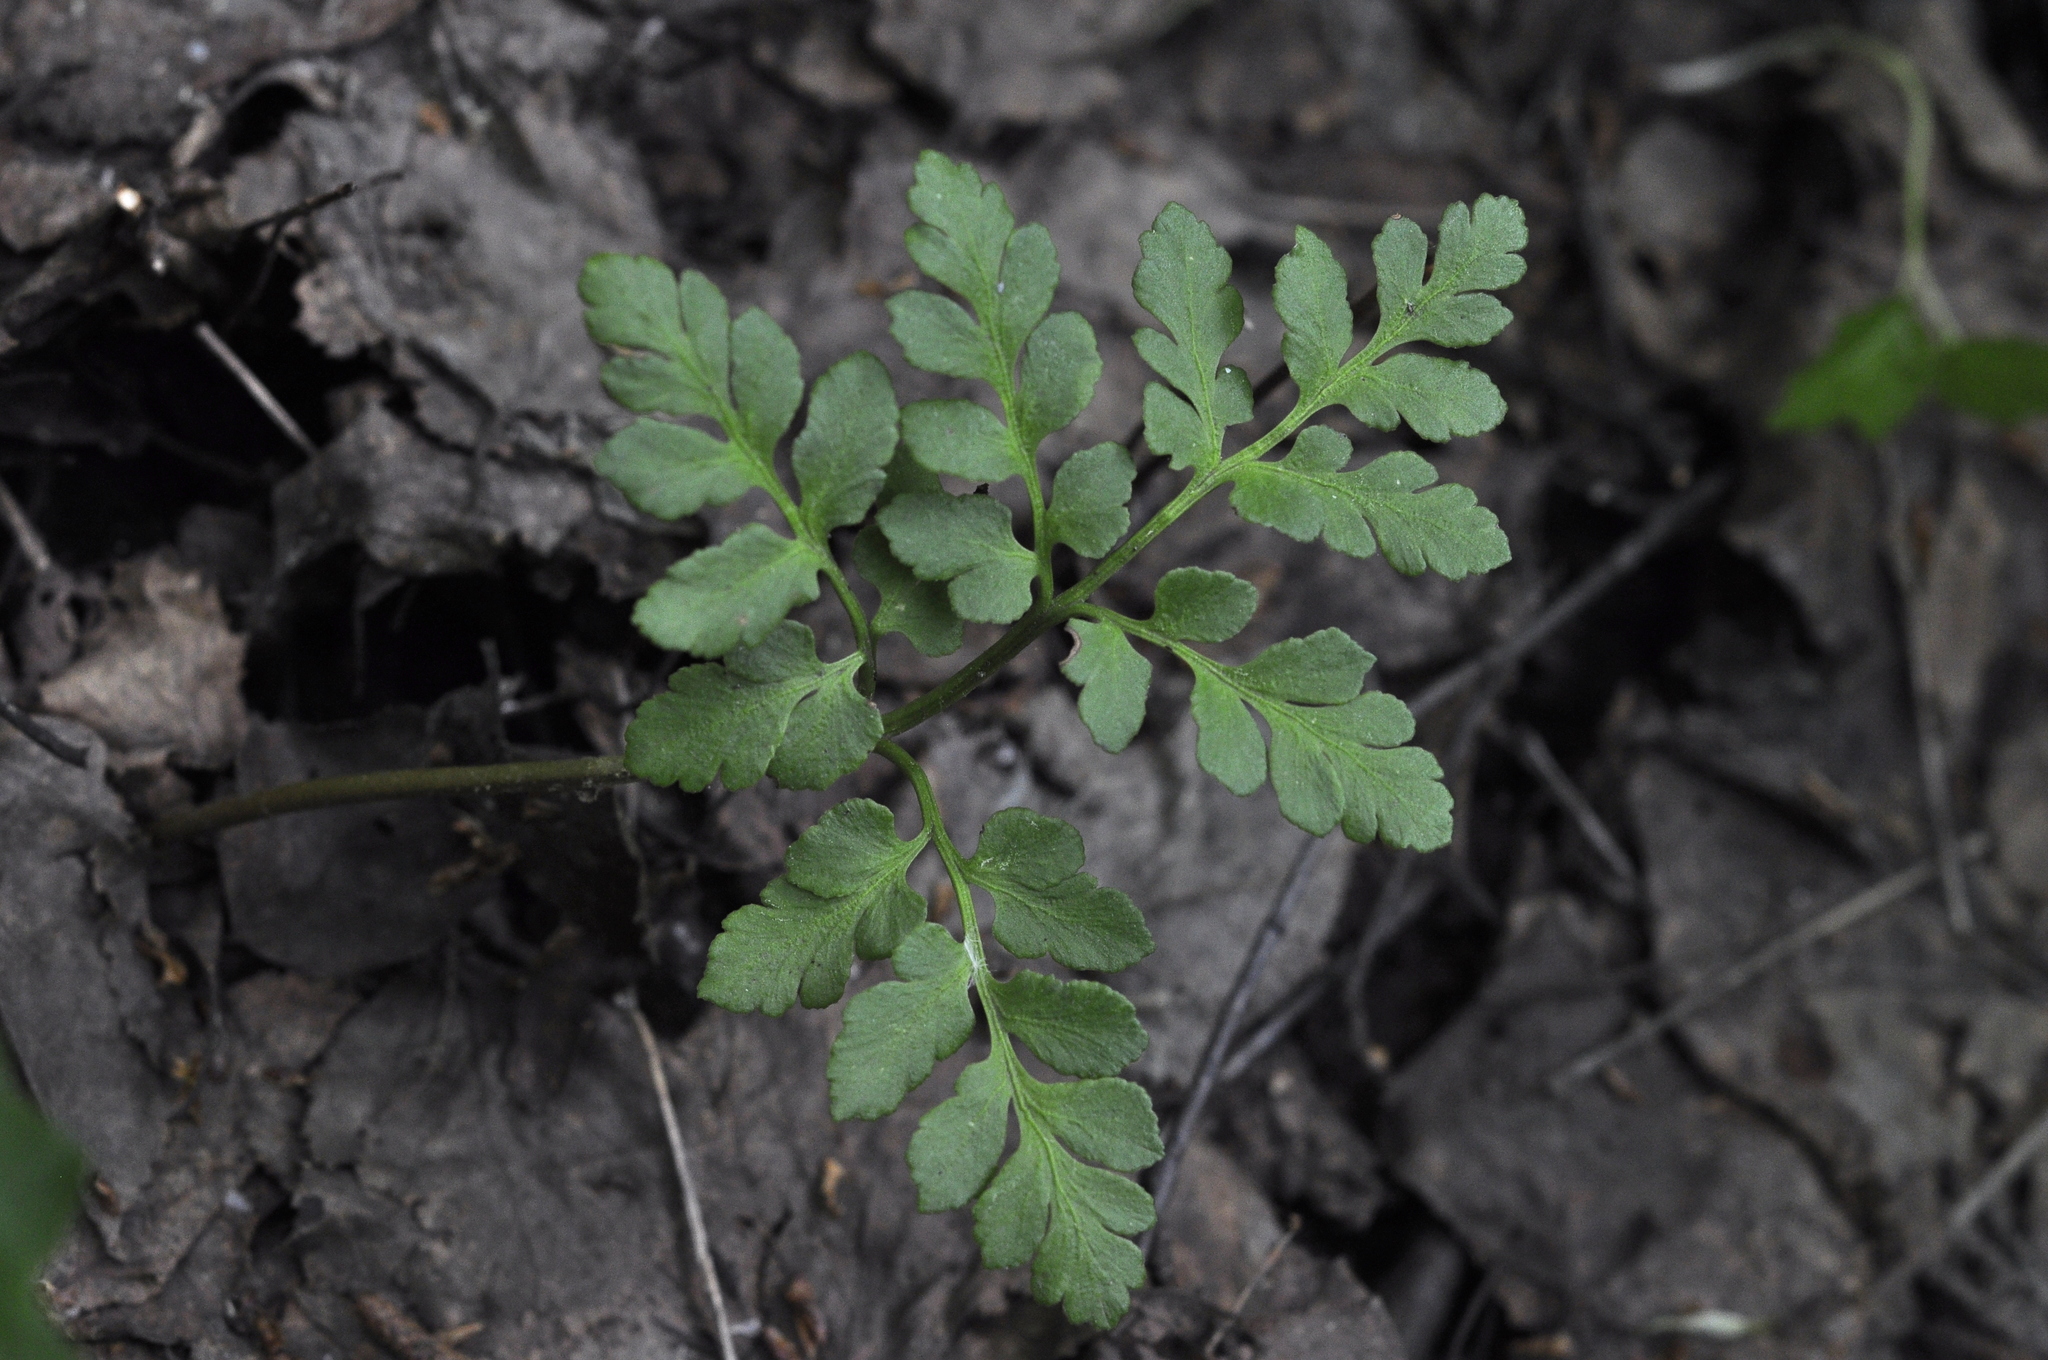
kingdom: Plantae
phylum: Tracheophyta
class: Polypodiopsida
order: Ophioglossales
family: Ophioglossaceae
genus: Sceptridium
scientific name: Sceptridium multifidum
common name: Leathery grape fern
